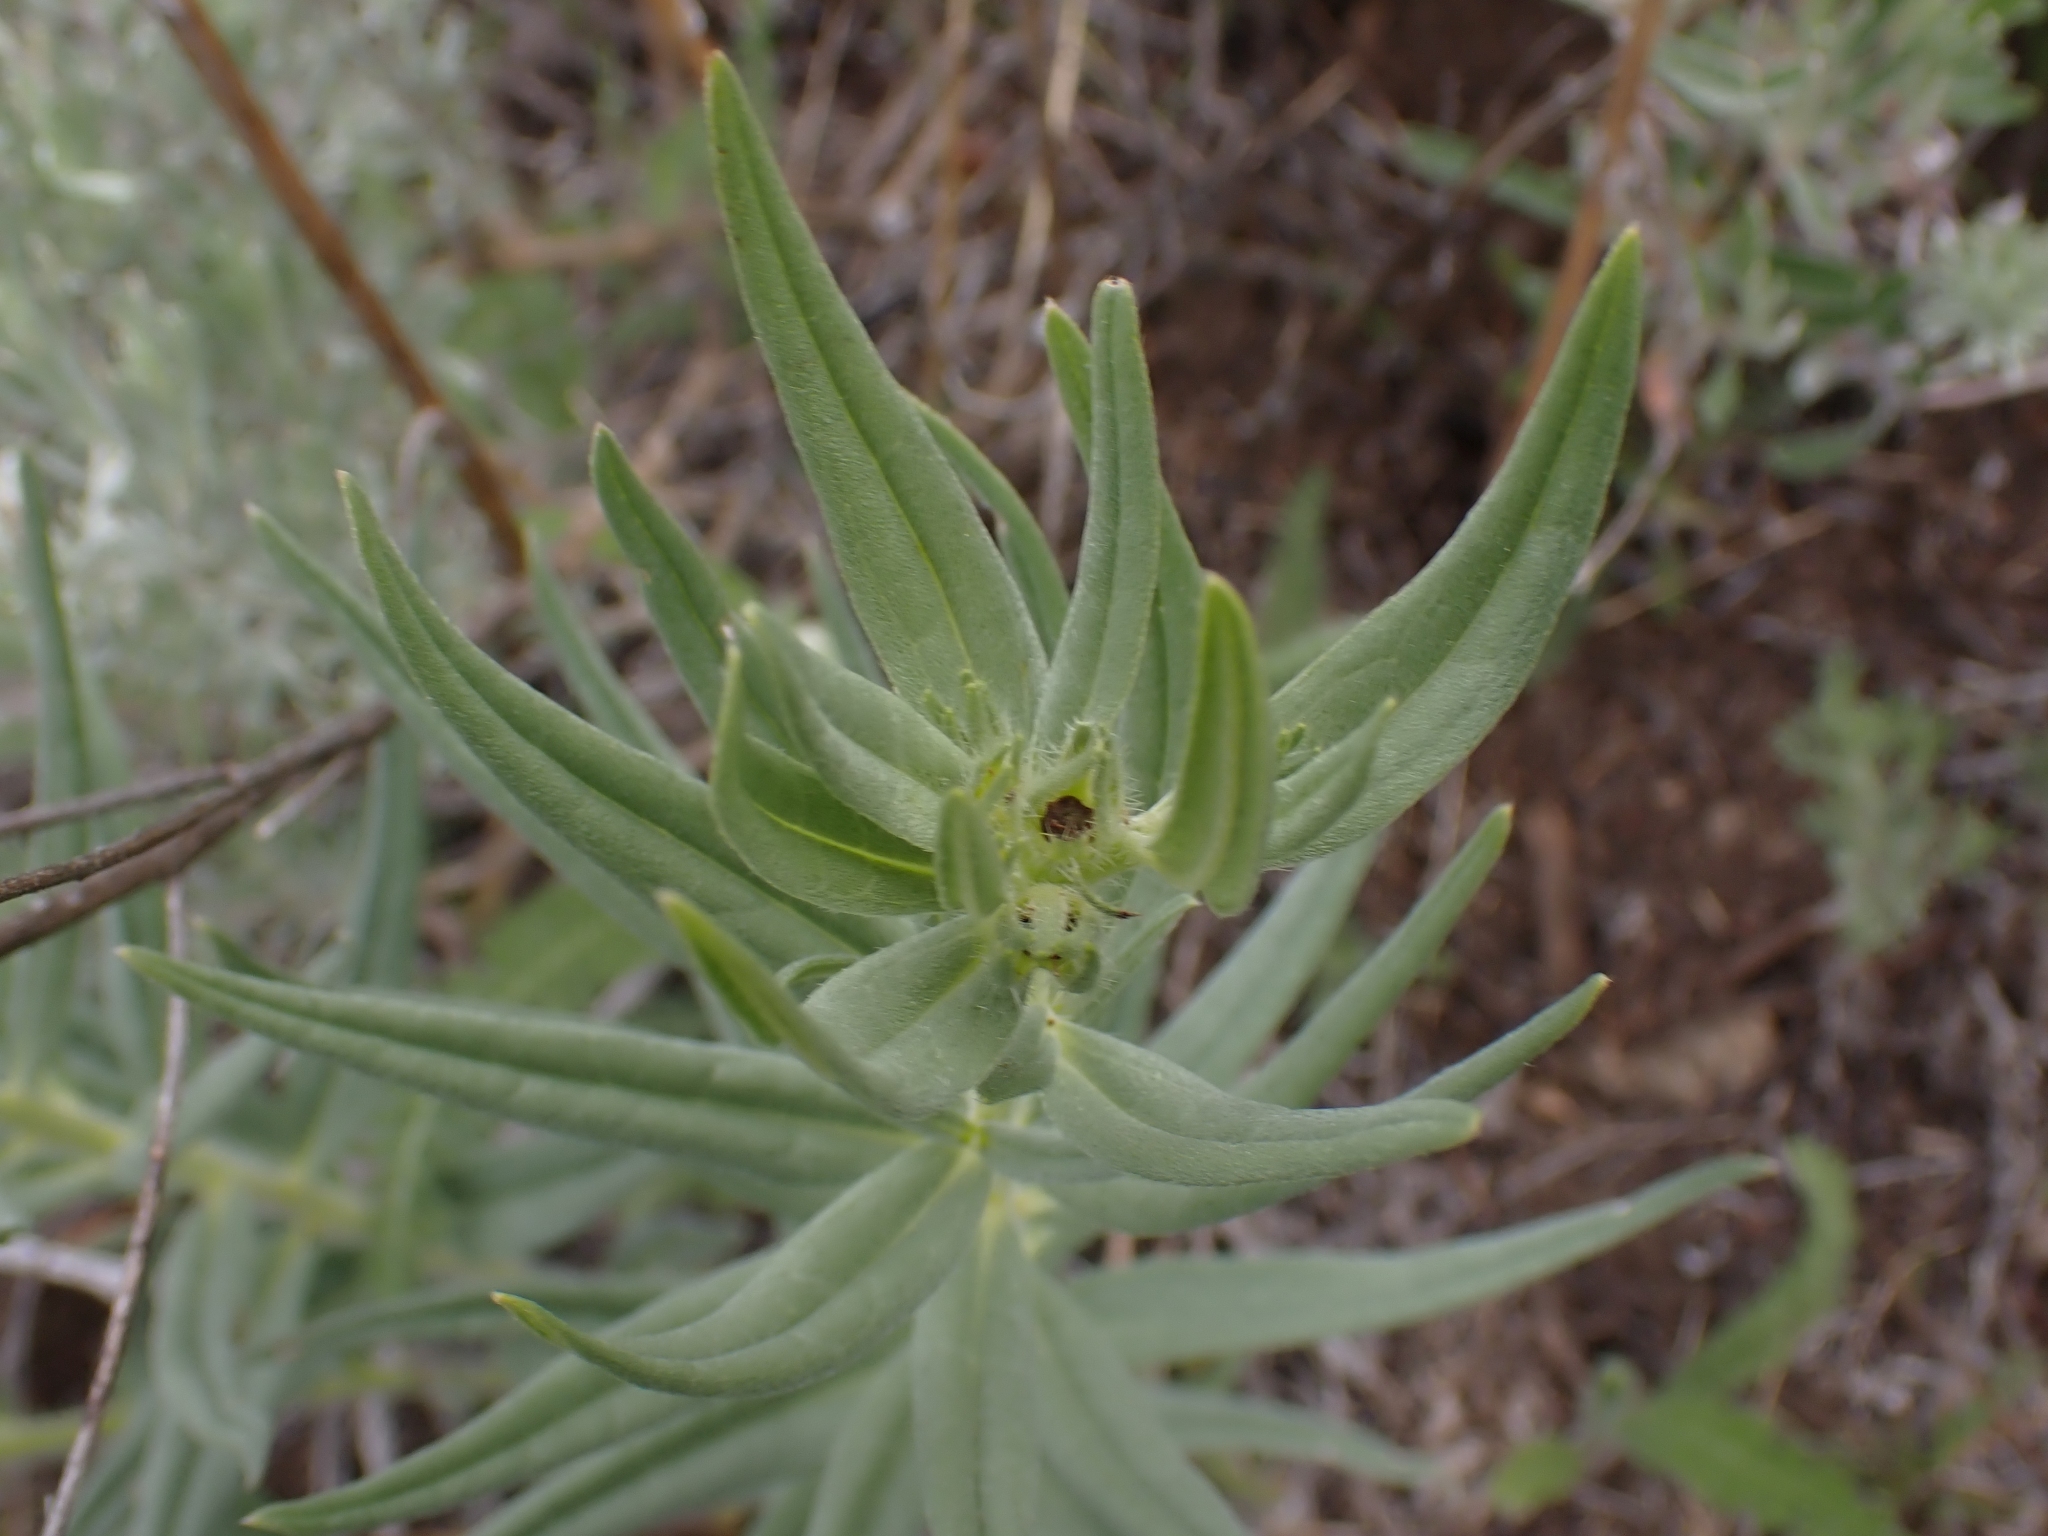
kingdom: Plantae
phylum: Tracheophyta
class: Magnoliopsida
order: Boraginales
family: Boraginaceae
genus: Lithospermum
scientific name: Lithospermum ruderale
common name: Western gromwell
